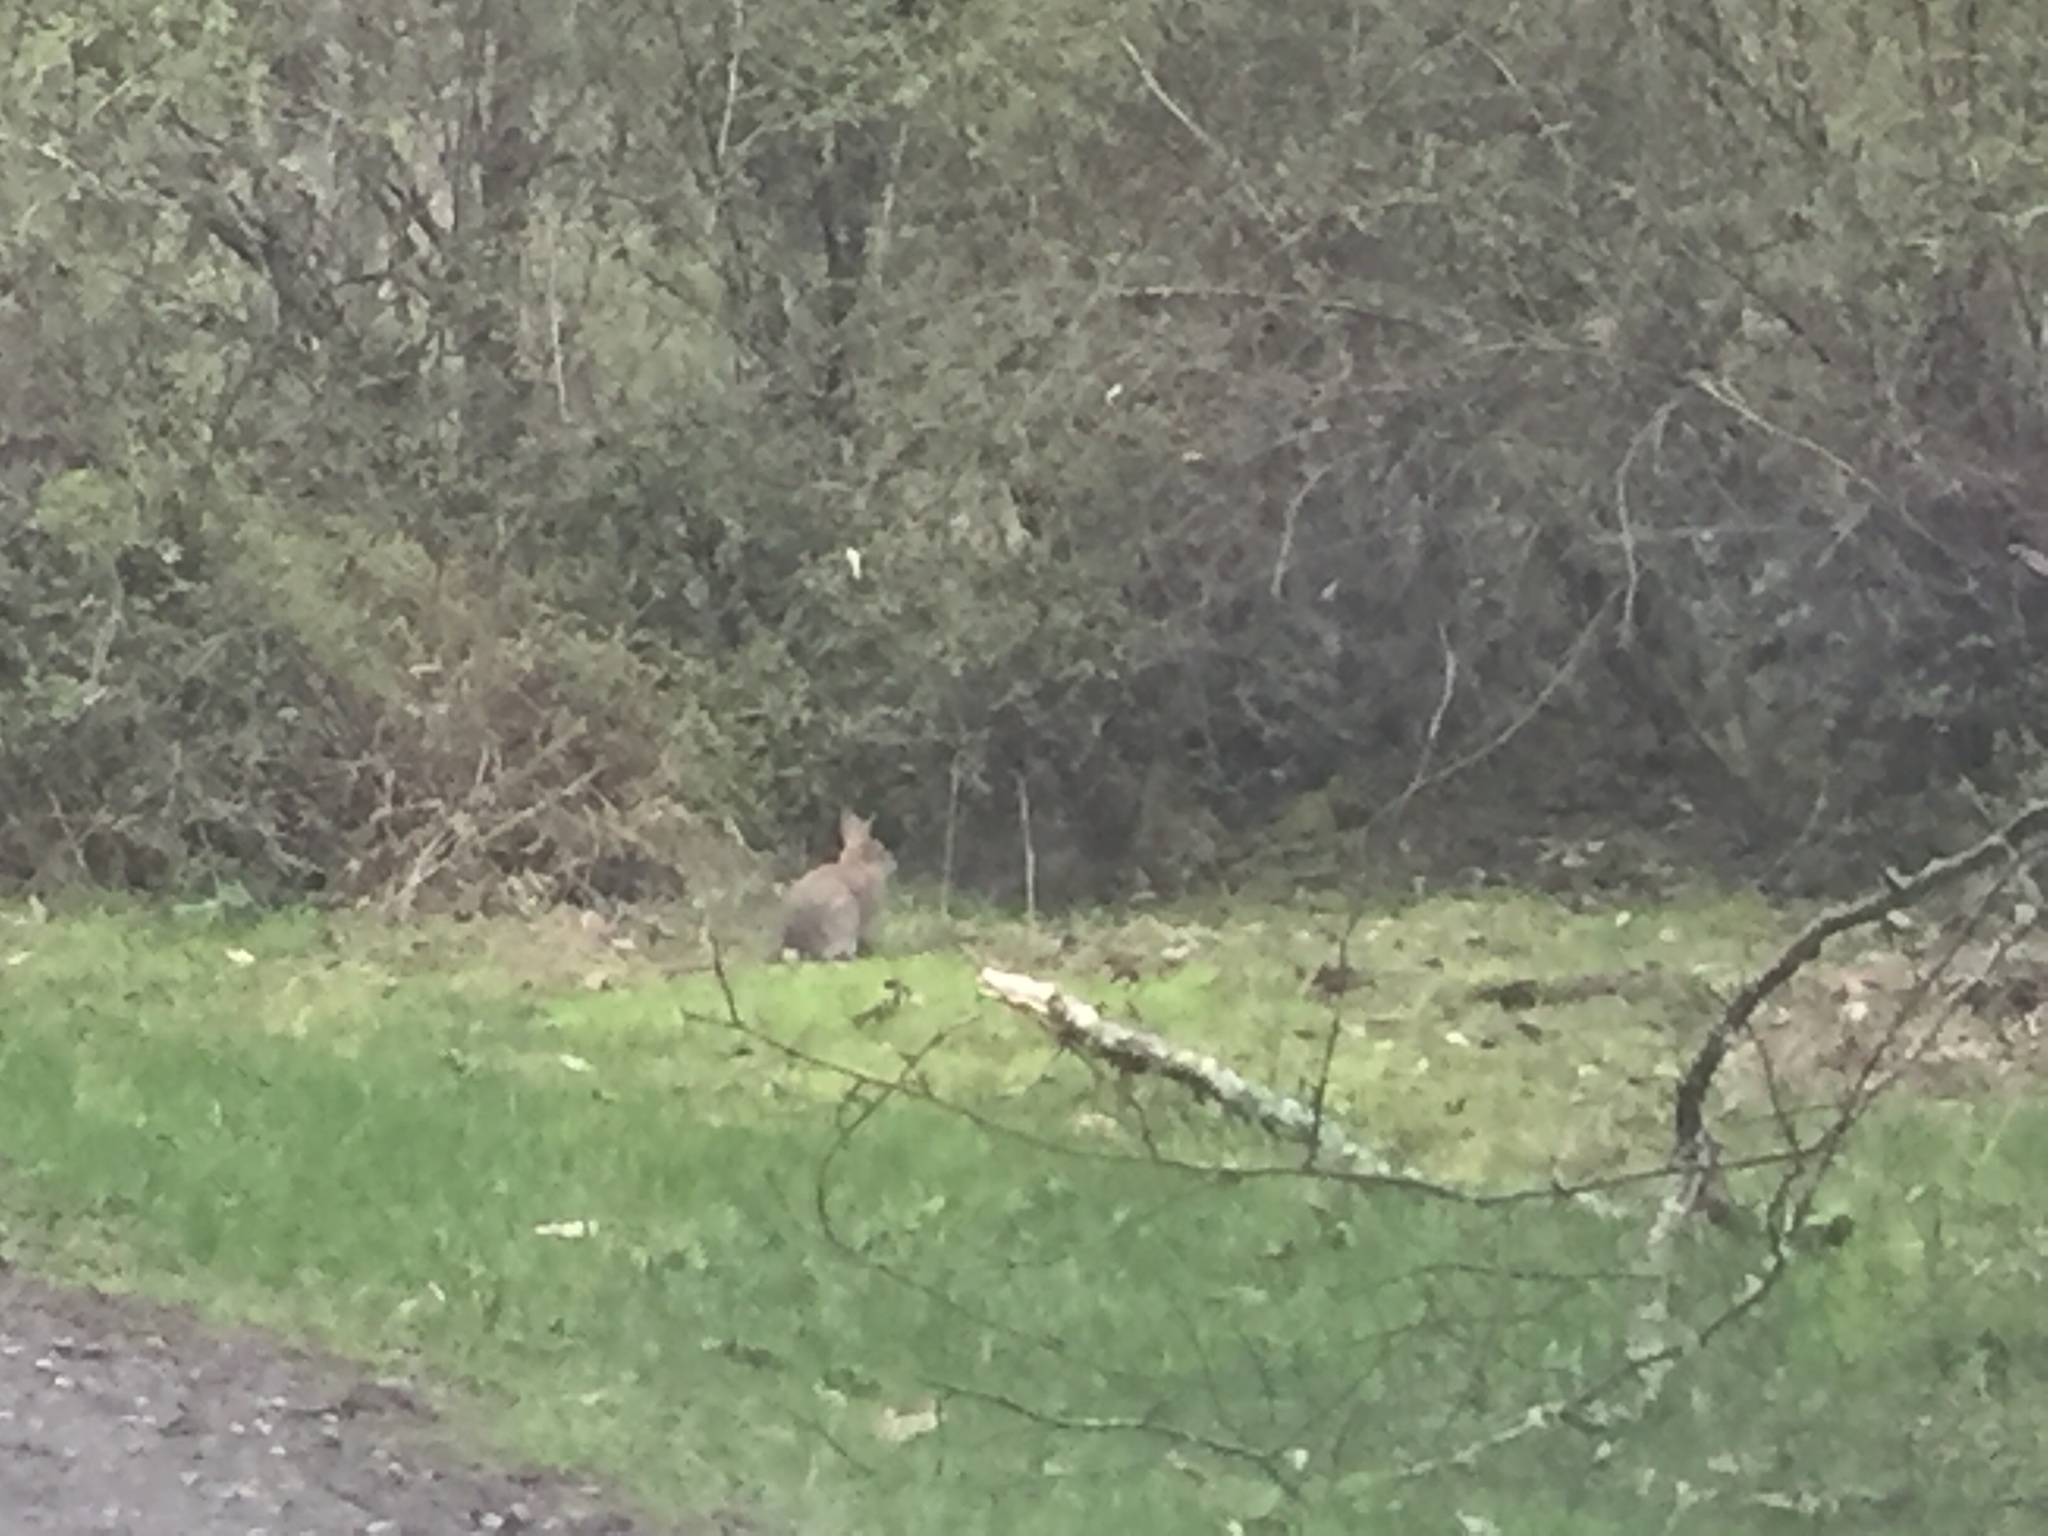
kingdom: Animalia
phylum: Chordata
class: Mammalia
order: Lagomorpha
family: Leporidae
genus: Sylvilagus
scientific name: Sylvilagus floridanus
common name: Eastern cottontail
